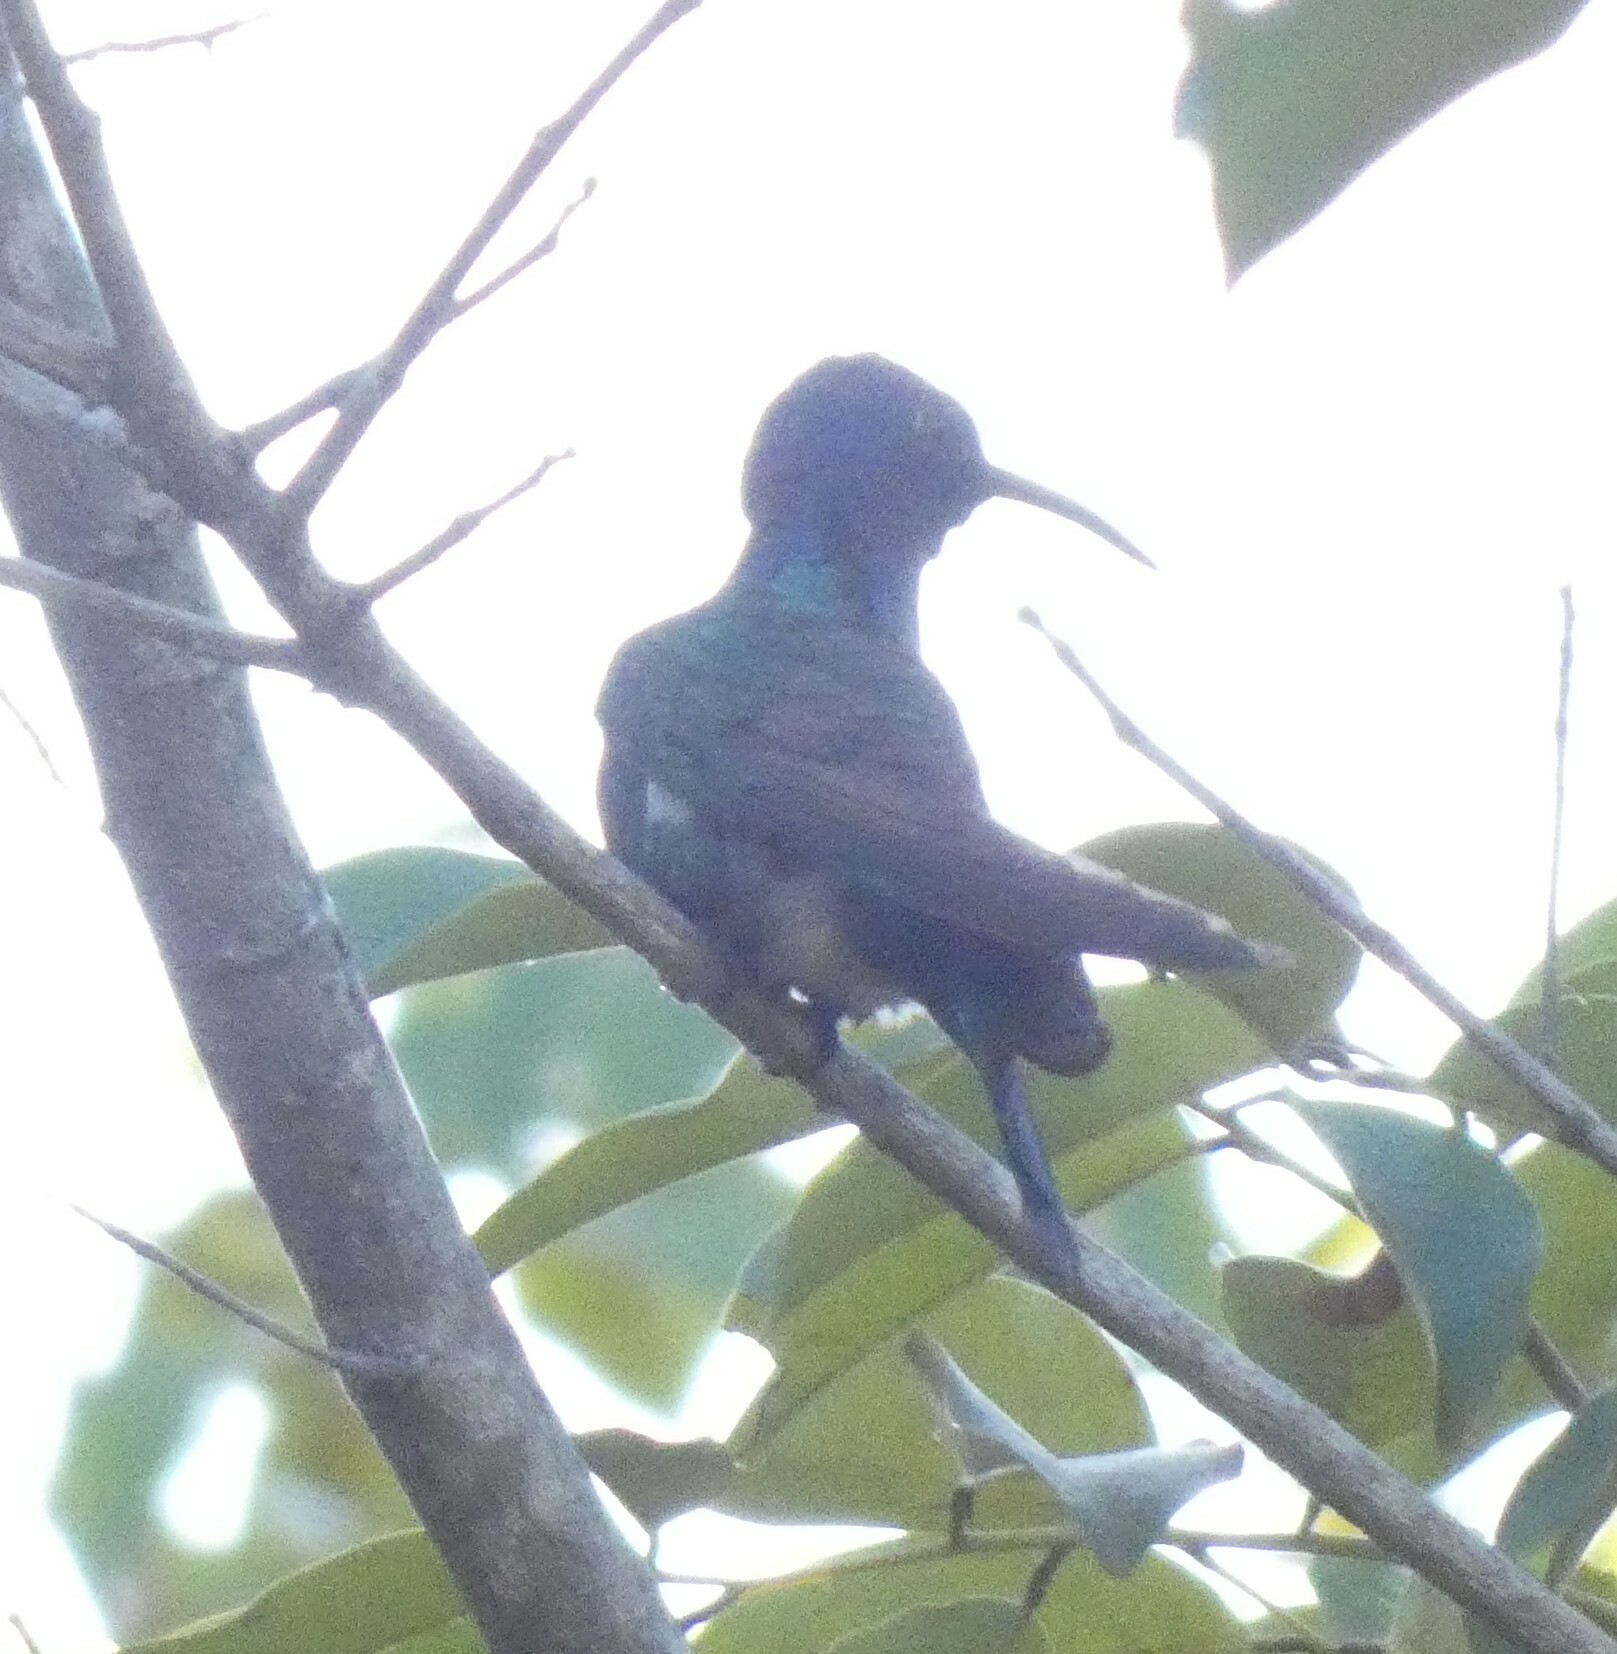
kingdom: Animalia
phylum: Chordata
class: Aves
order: Apodiformes
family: Trochilidae
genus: Eupetomena
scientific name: Eupetomena macroura
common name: Swallow-tailed hummingbird
